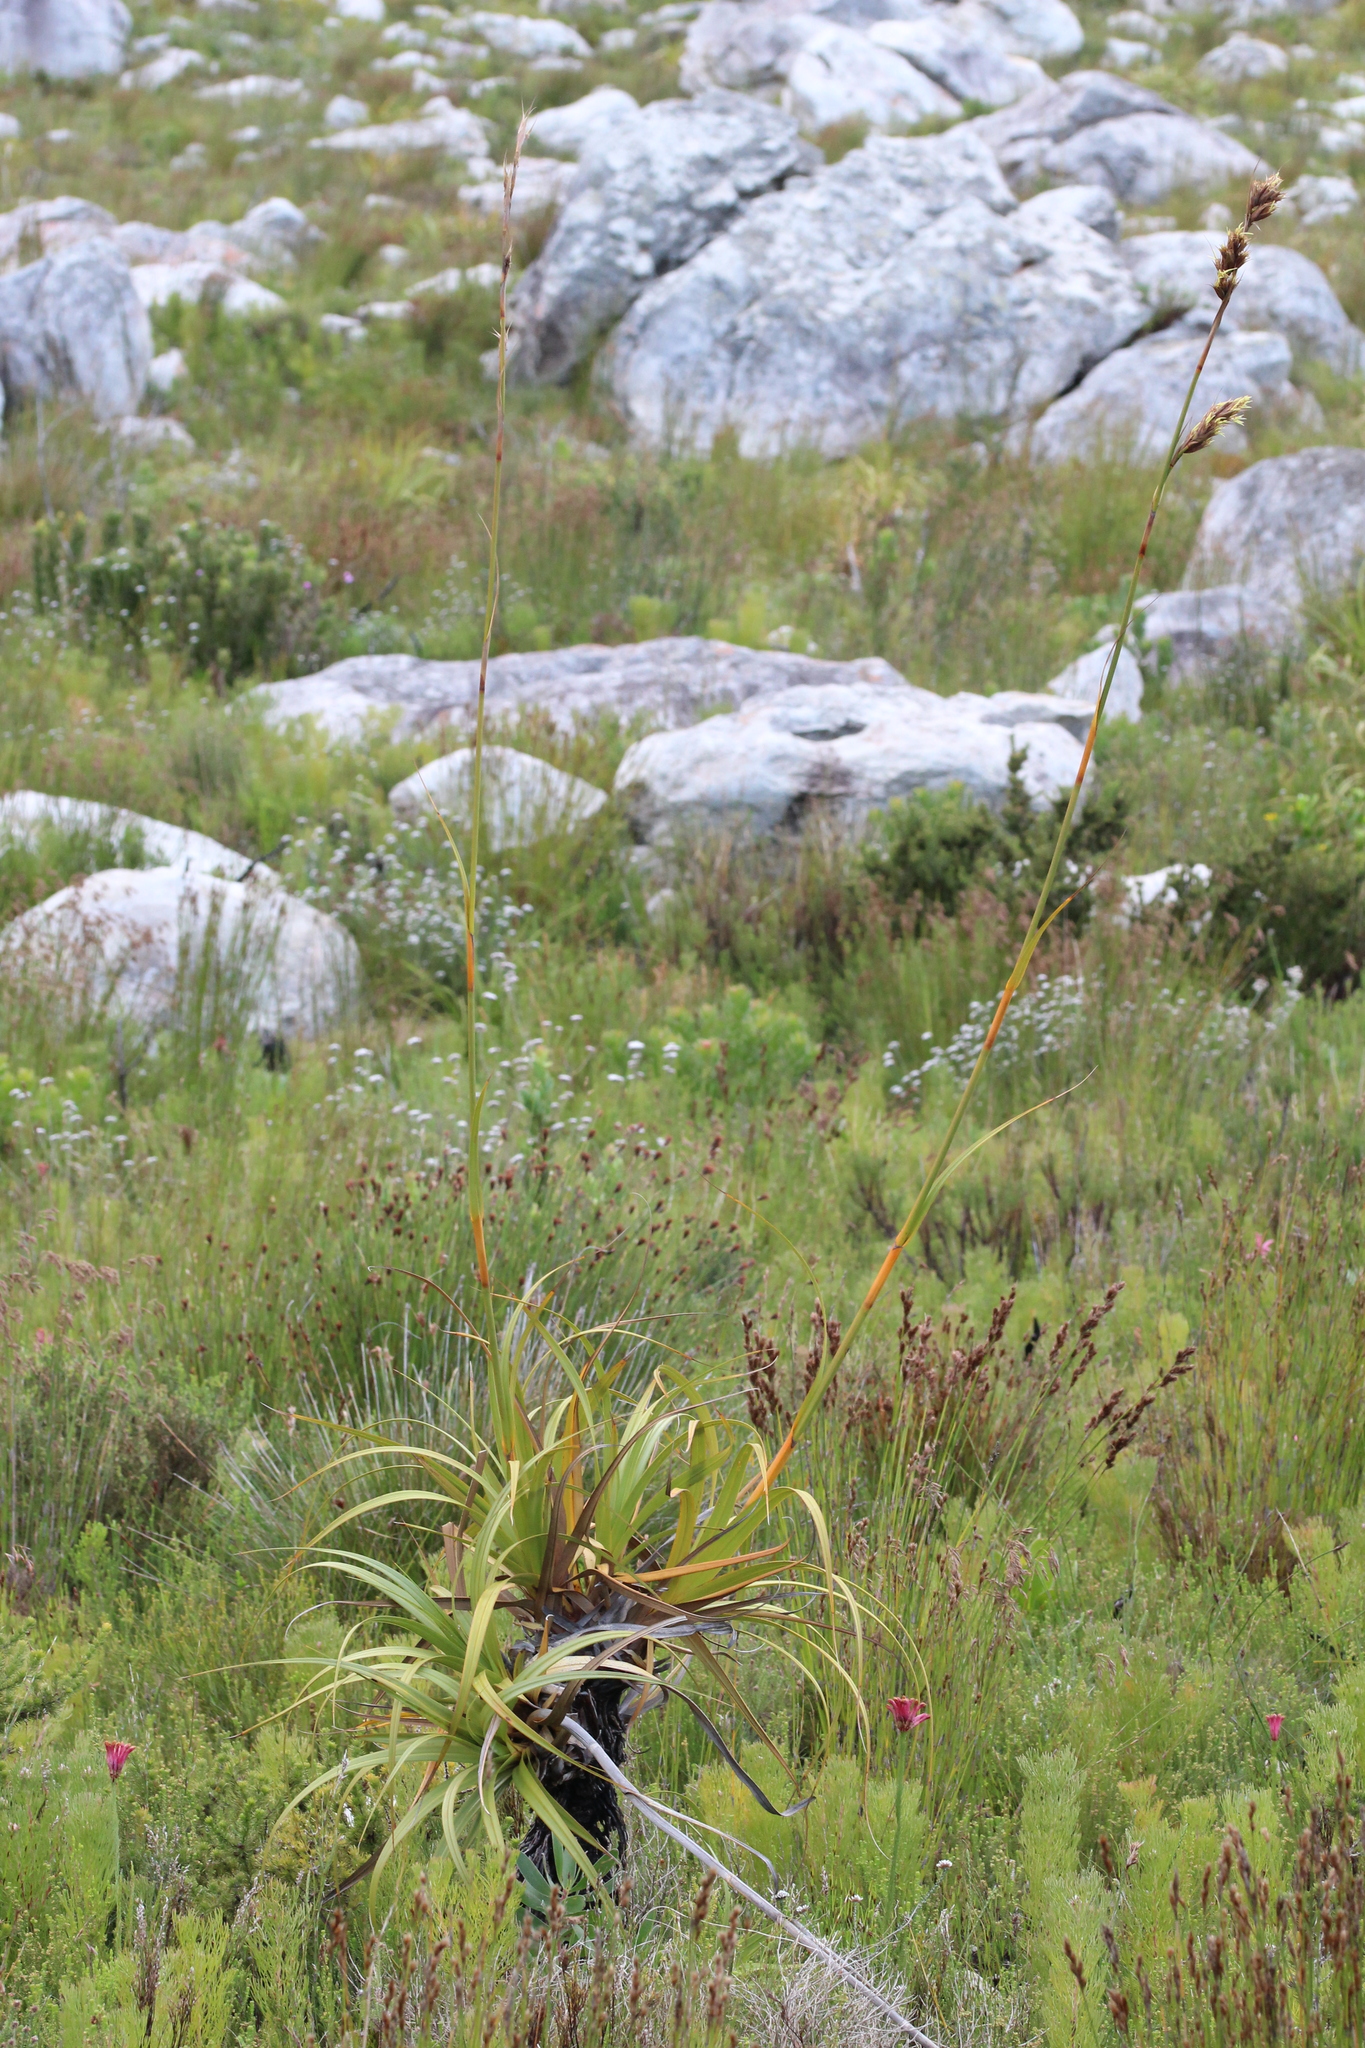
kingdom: Plantae
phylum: Tracheophyta
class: Liliopsida
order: Poales
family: Cyperaceae
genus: Tetraria
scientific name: Tetraria thermalis
